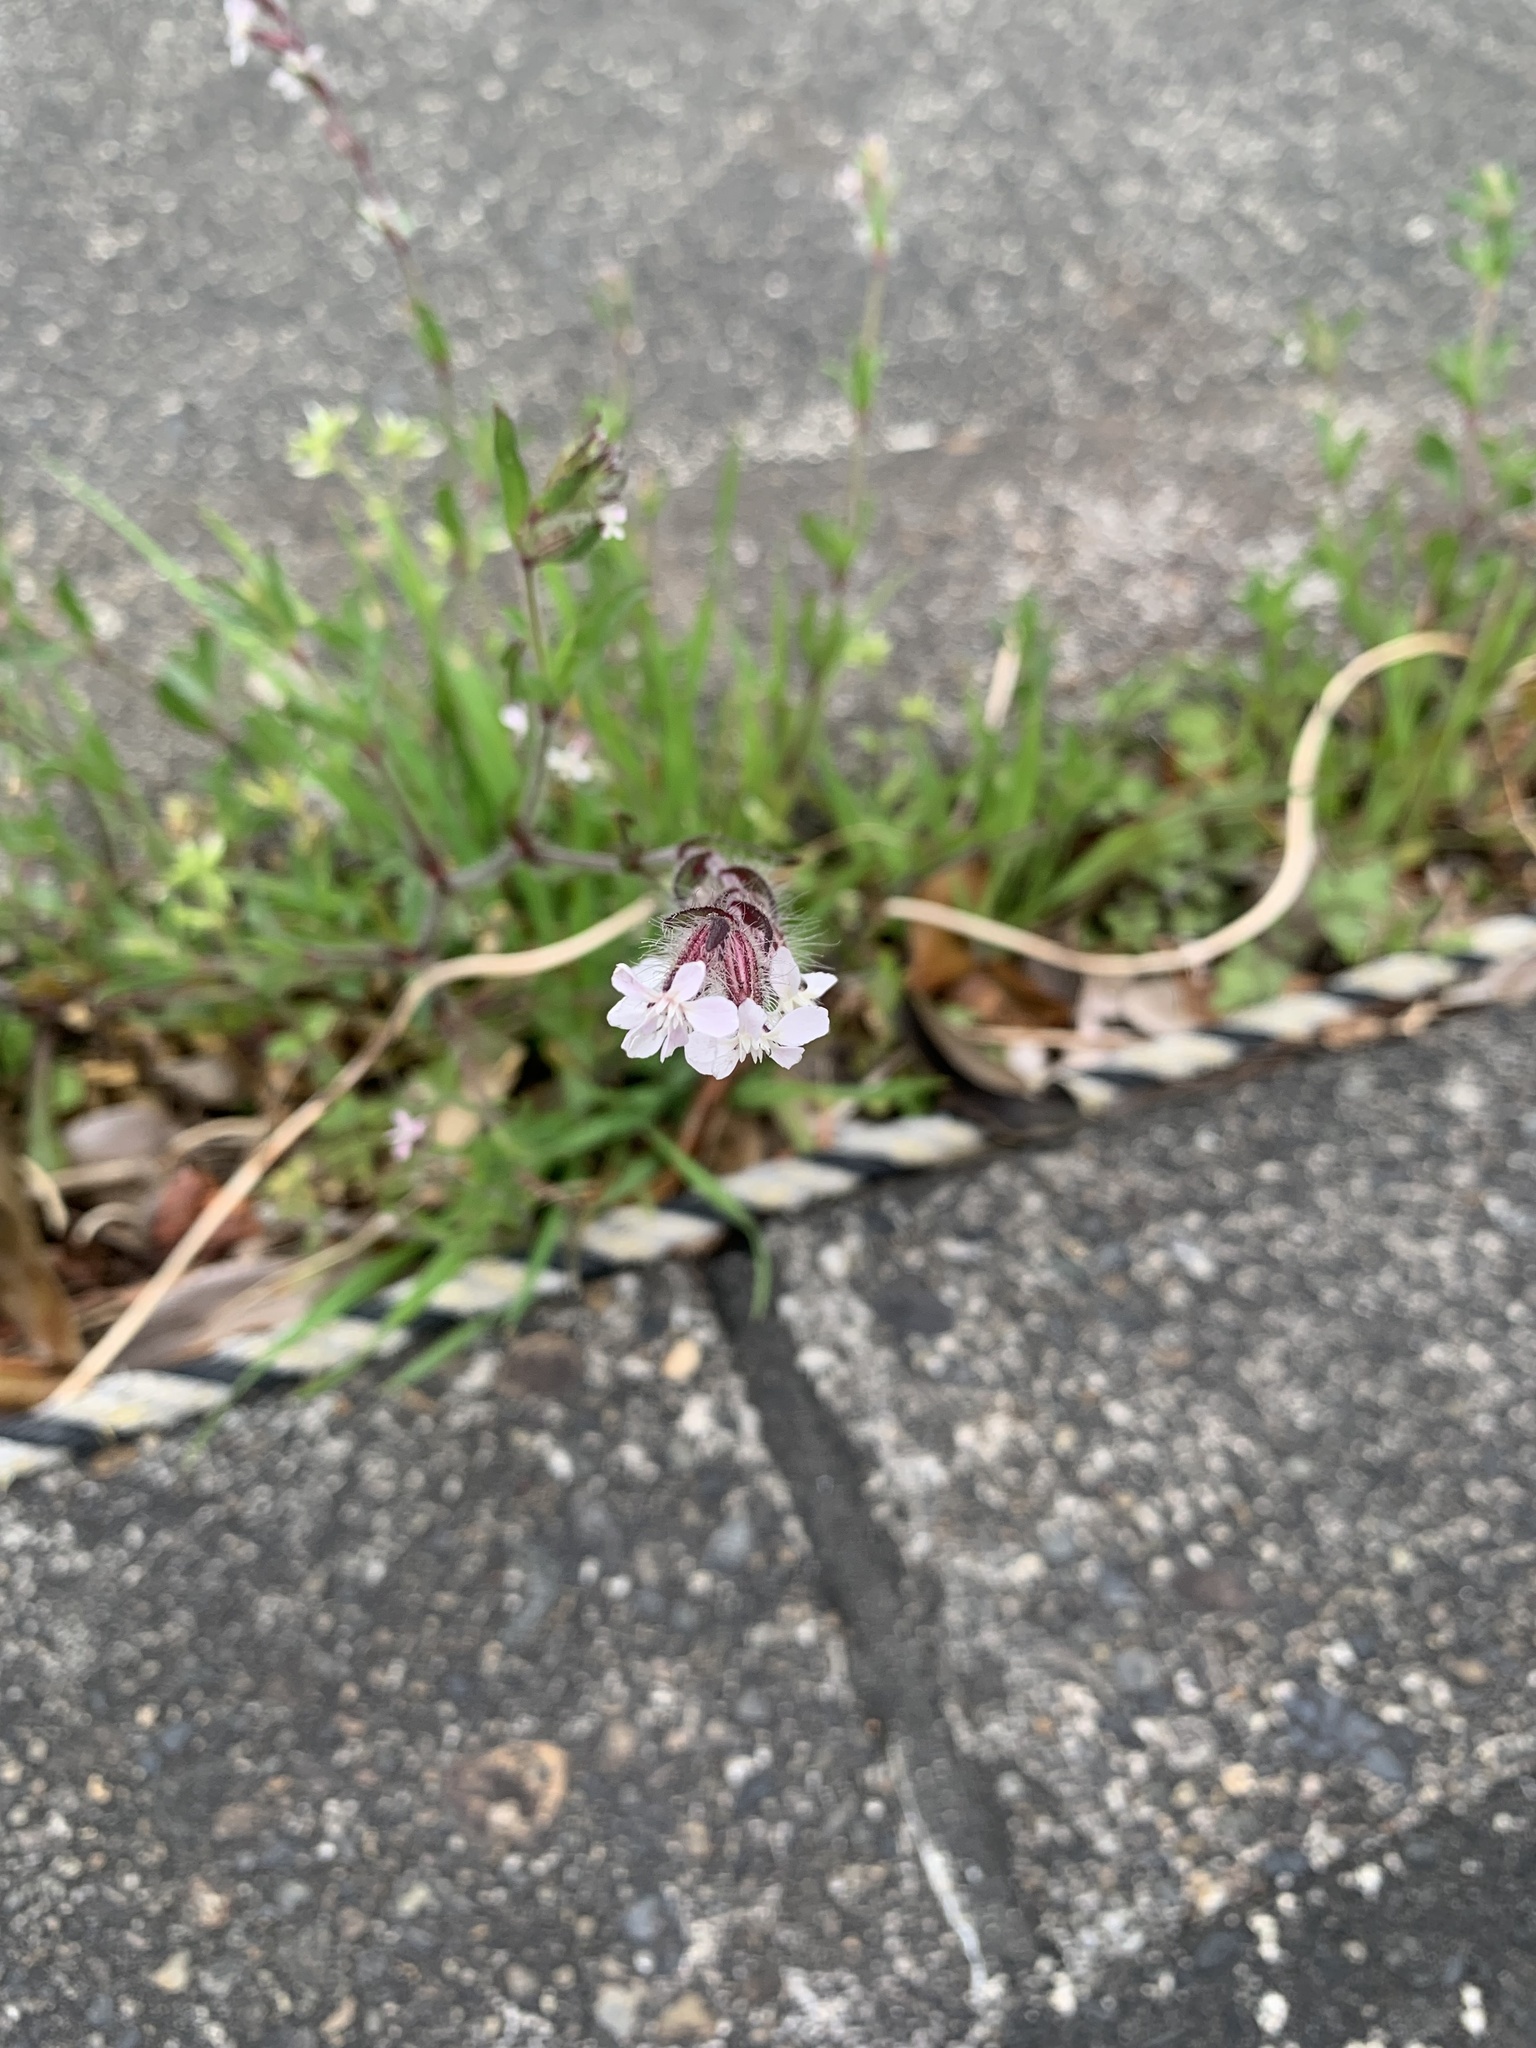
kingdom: Plantae
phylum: Tracheophyta
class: Magnoliopsida
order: Caryophyllales
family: Caryophyllaceae
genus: Silene
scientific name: Silene gallica
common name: Small-flowered catchfly
